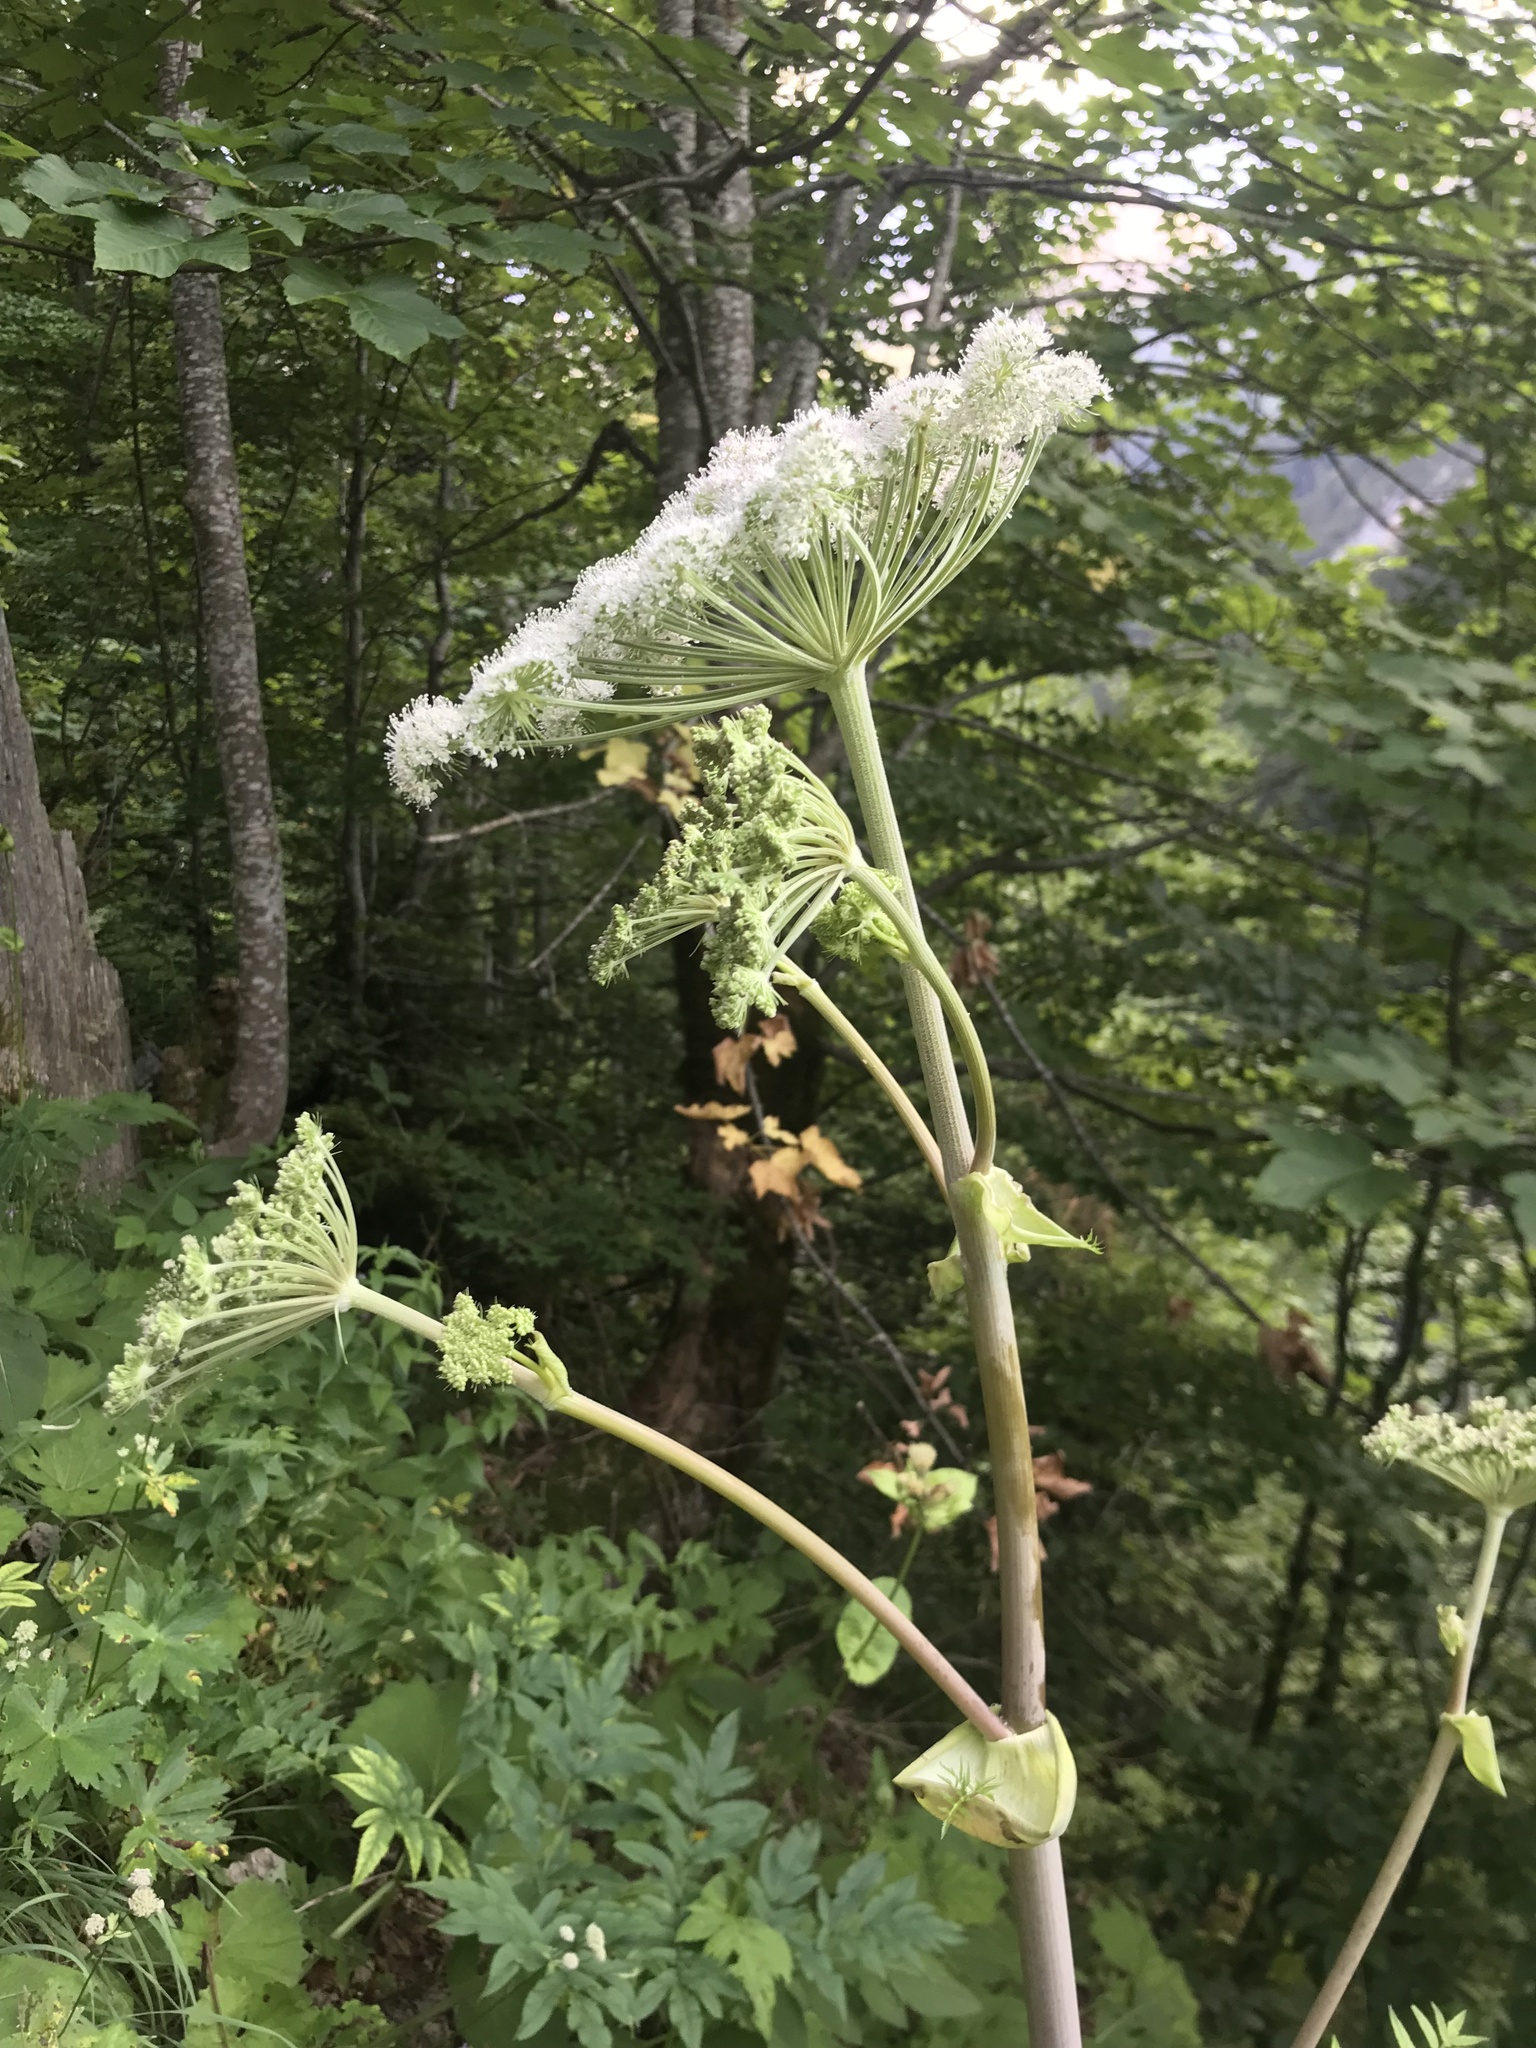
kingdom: Plantae
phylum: Tracheophyta
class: Magnoliopsida
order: Apiales
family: Apiaceae
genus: Angelica
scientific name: Angelica sylvestris
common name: Wild angelica
